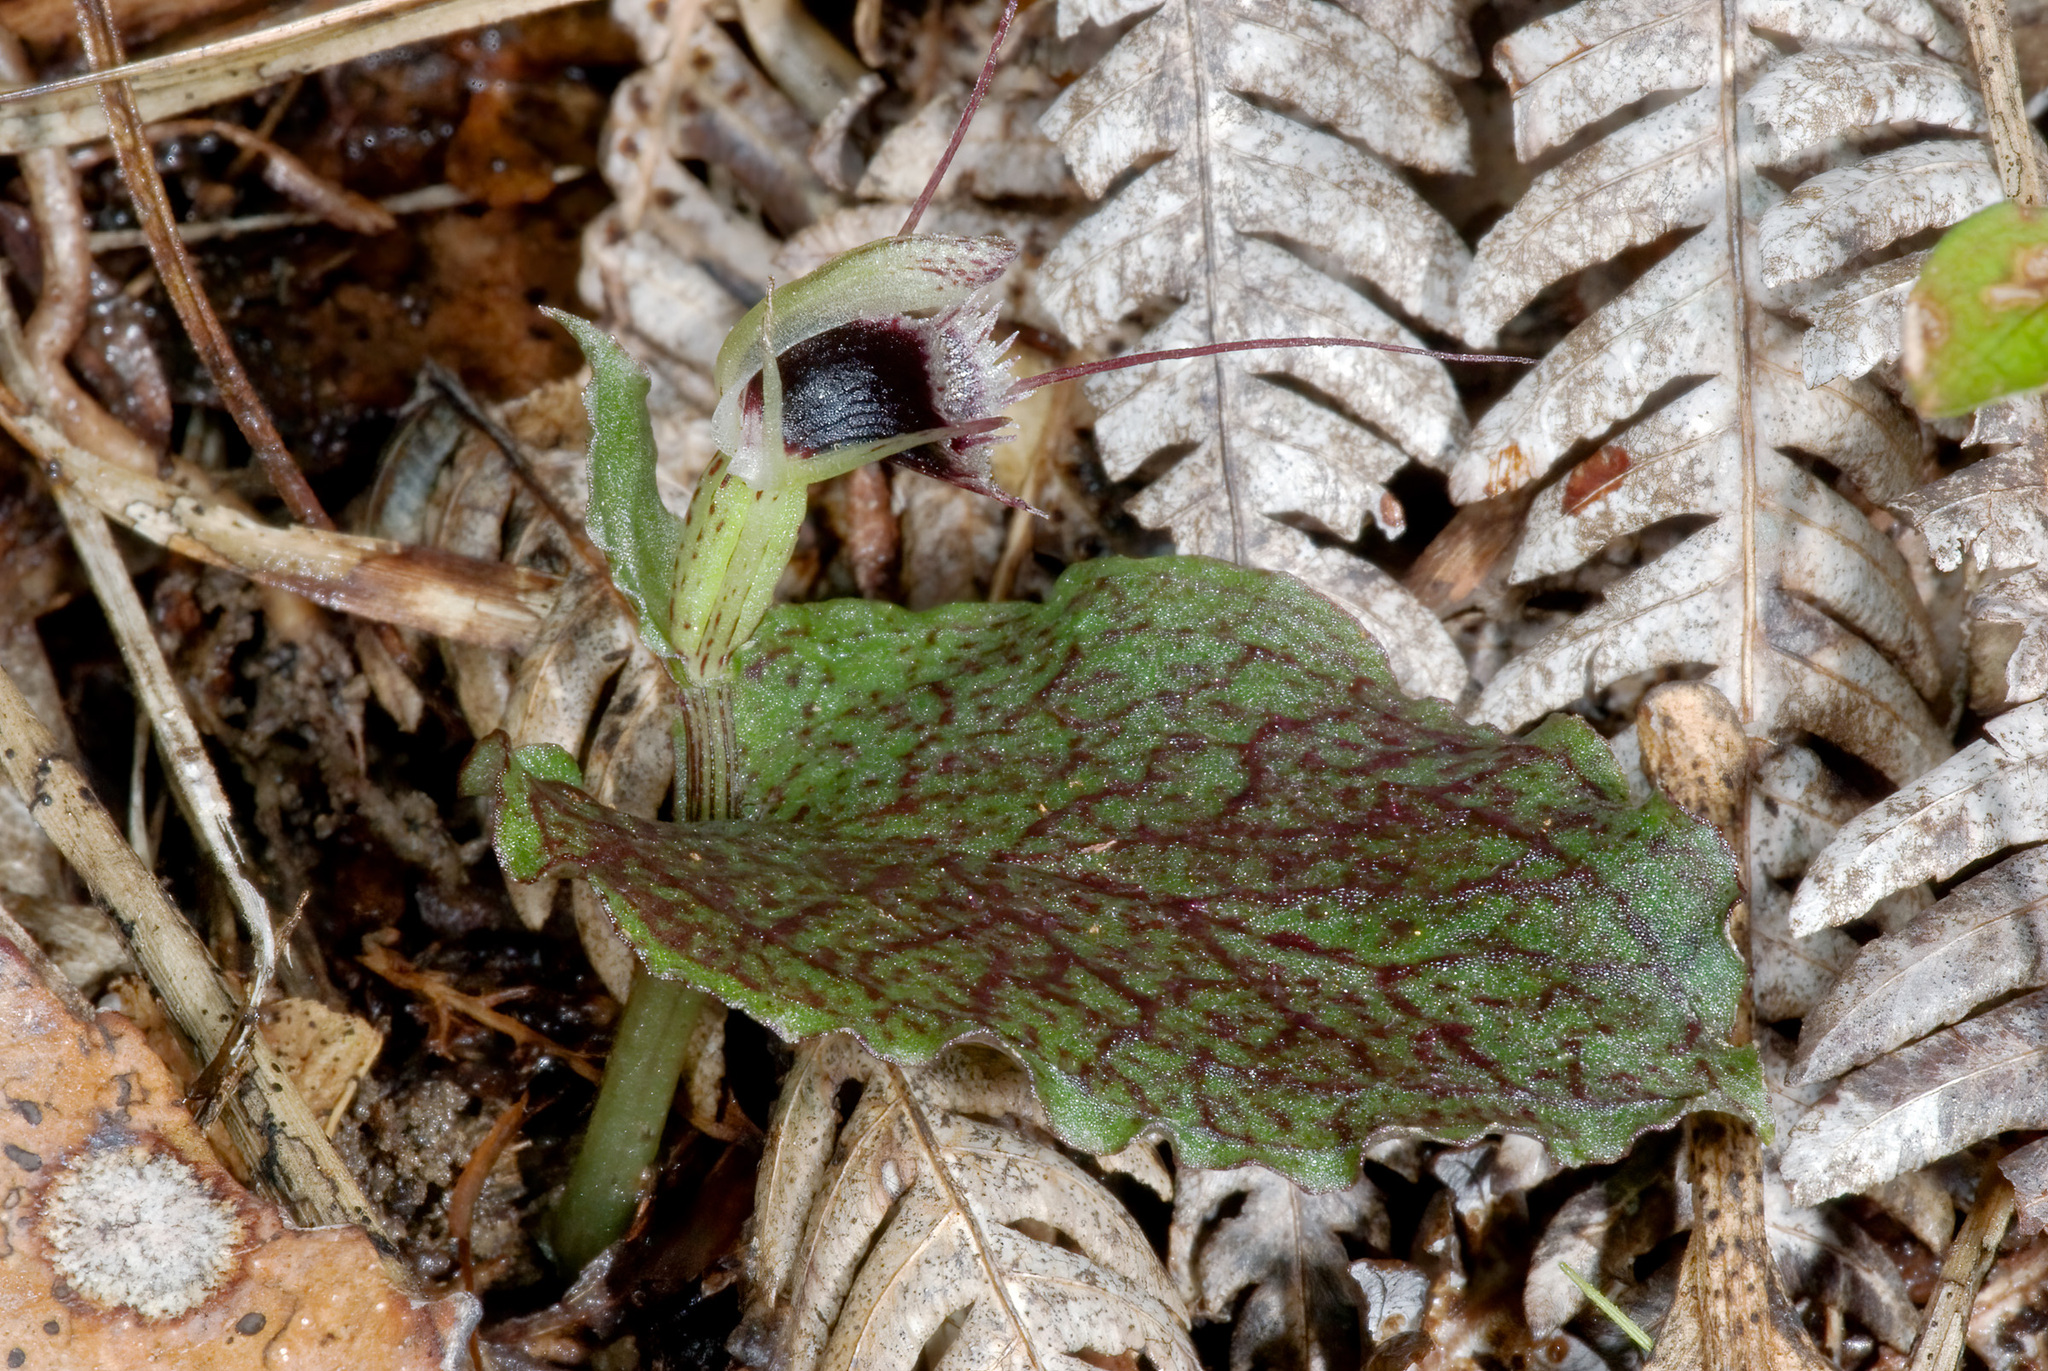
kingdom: Plantae
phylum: Tracheophyta
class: Liliopsida
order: Asparagales
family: Orchidaceae
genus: Corybas
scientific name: Corybas oblongus
